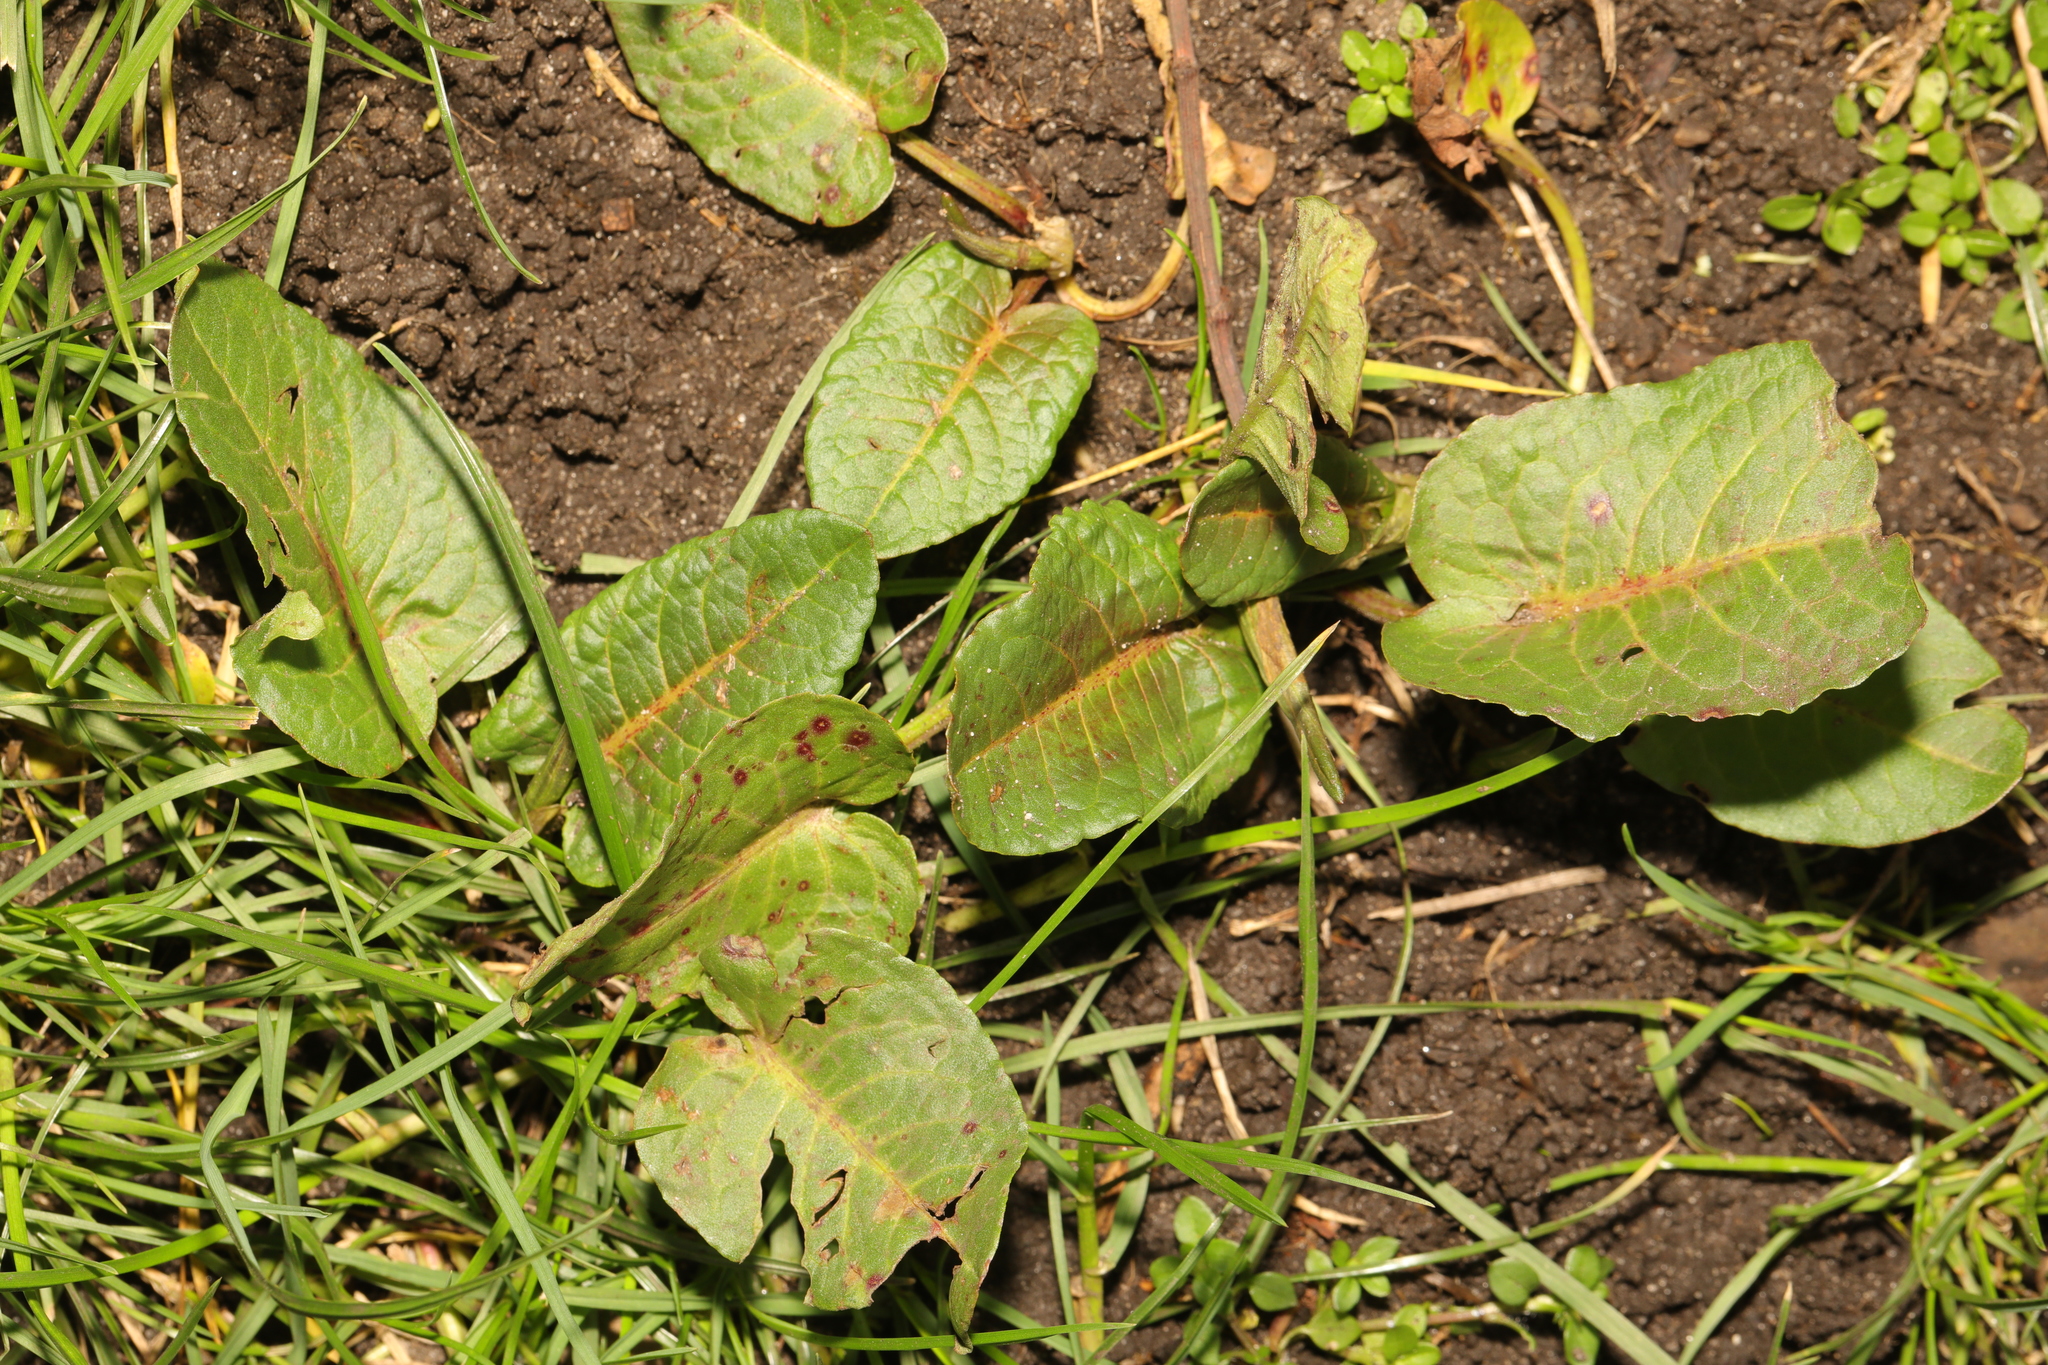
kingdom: Plantae
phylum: Tracheophyta
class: Magnoliopsida
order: Caryophyllales
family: Polygonaceae
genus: Rumex
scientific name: Rumex obtusifolius
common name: Bitter dock
